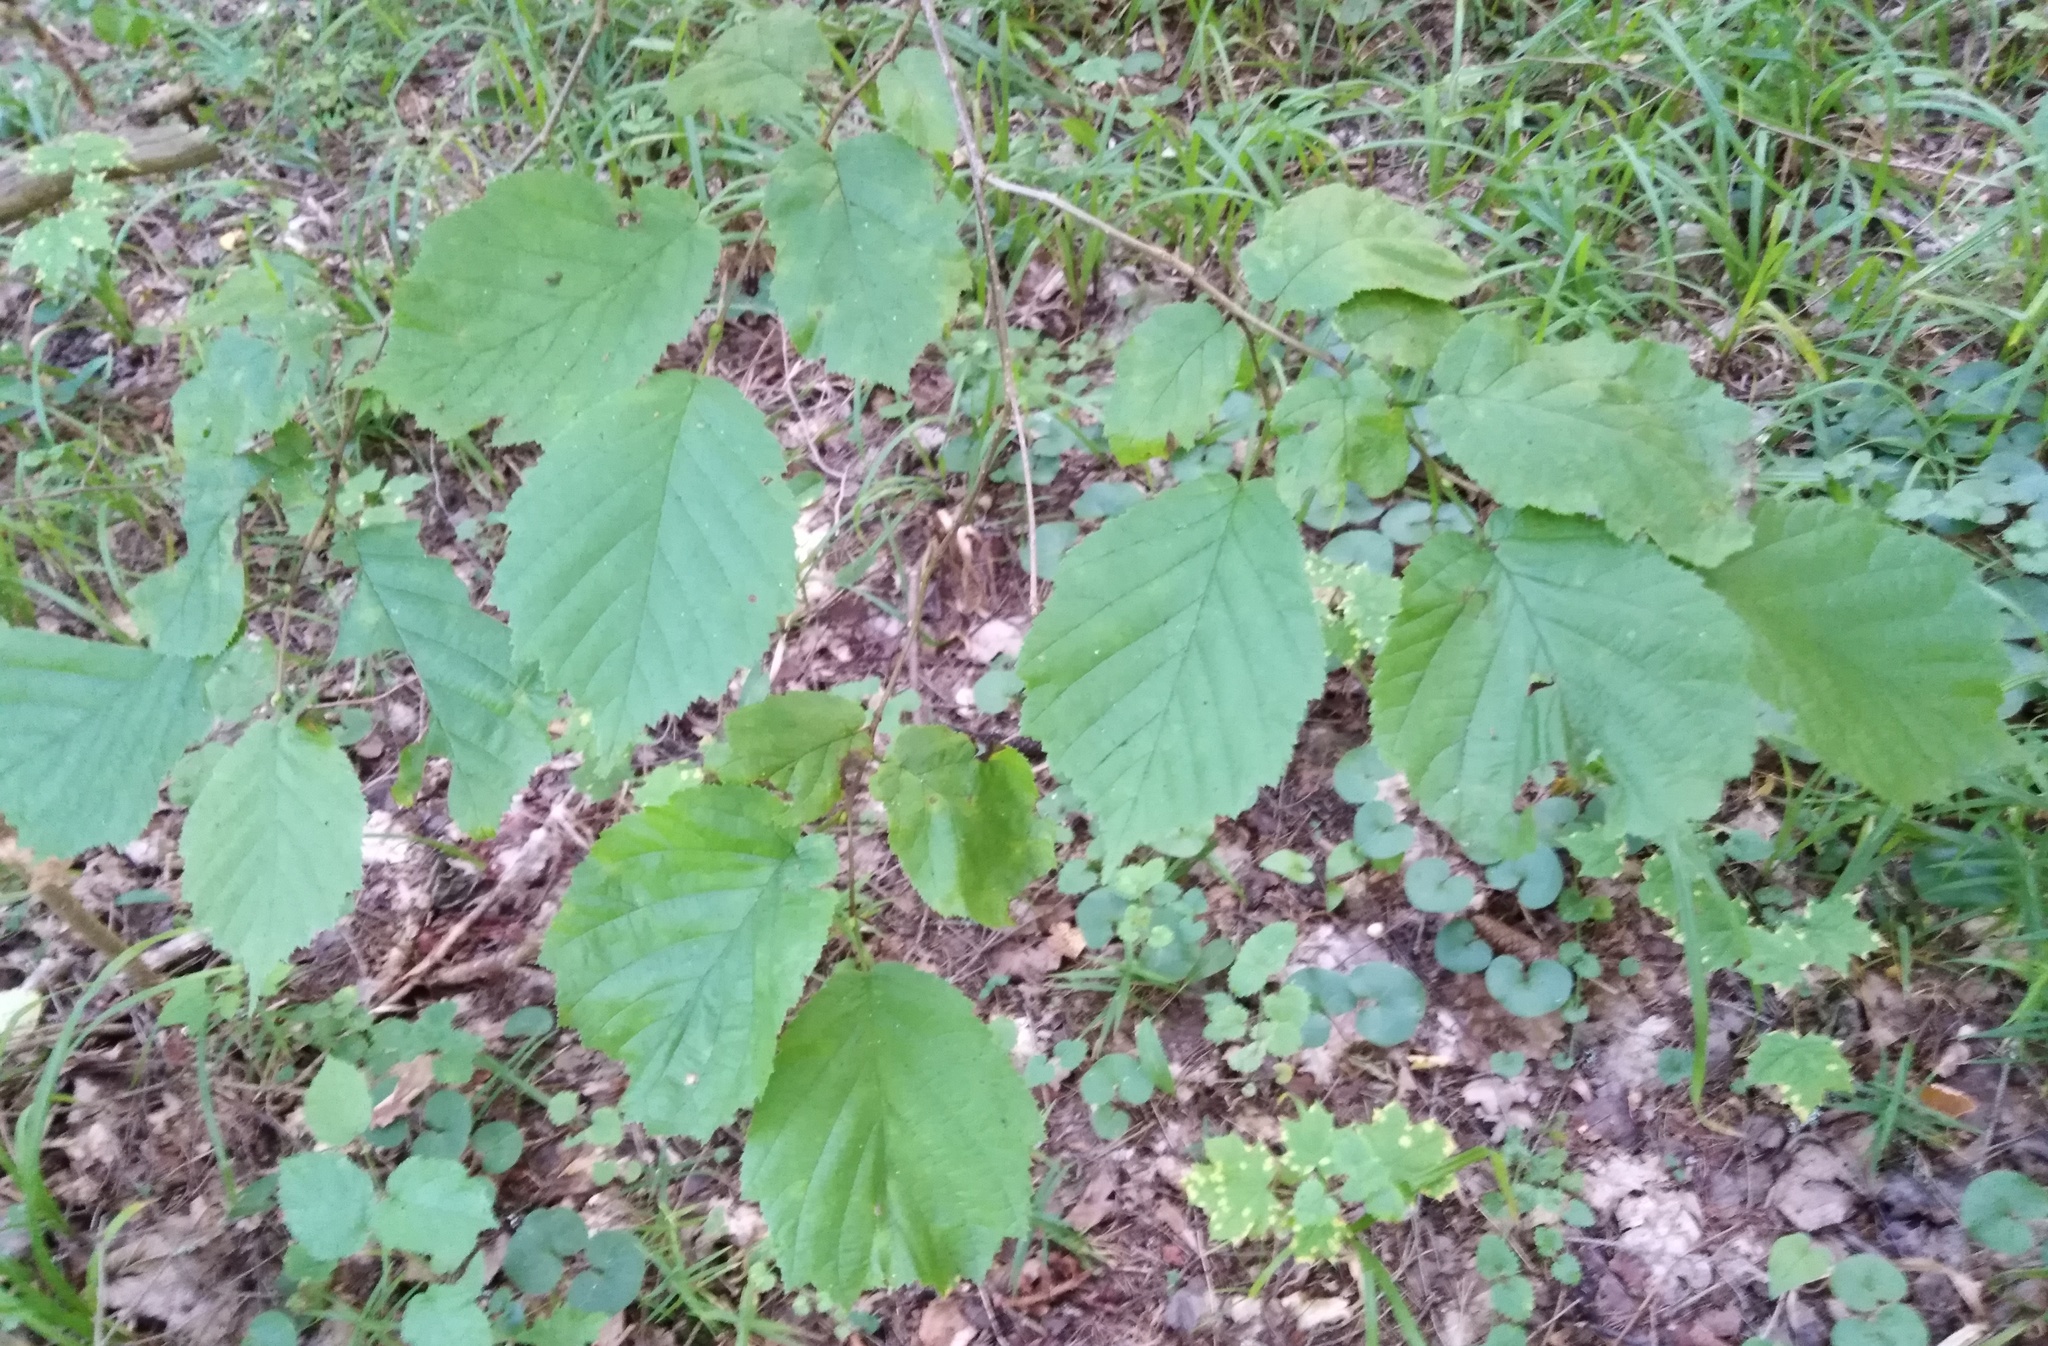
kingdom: Plantae
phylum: Tracheophyta
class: Magnoliopsida
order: Fagales
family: Betulaceae
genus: Corylus
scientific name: Corylus avellana
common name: European hazel
